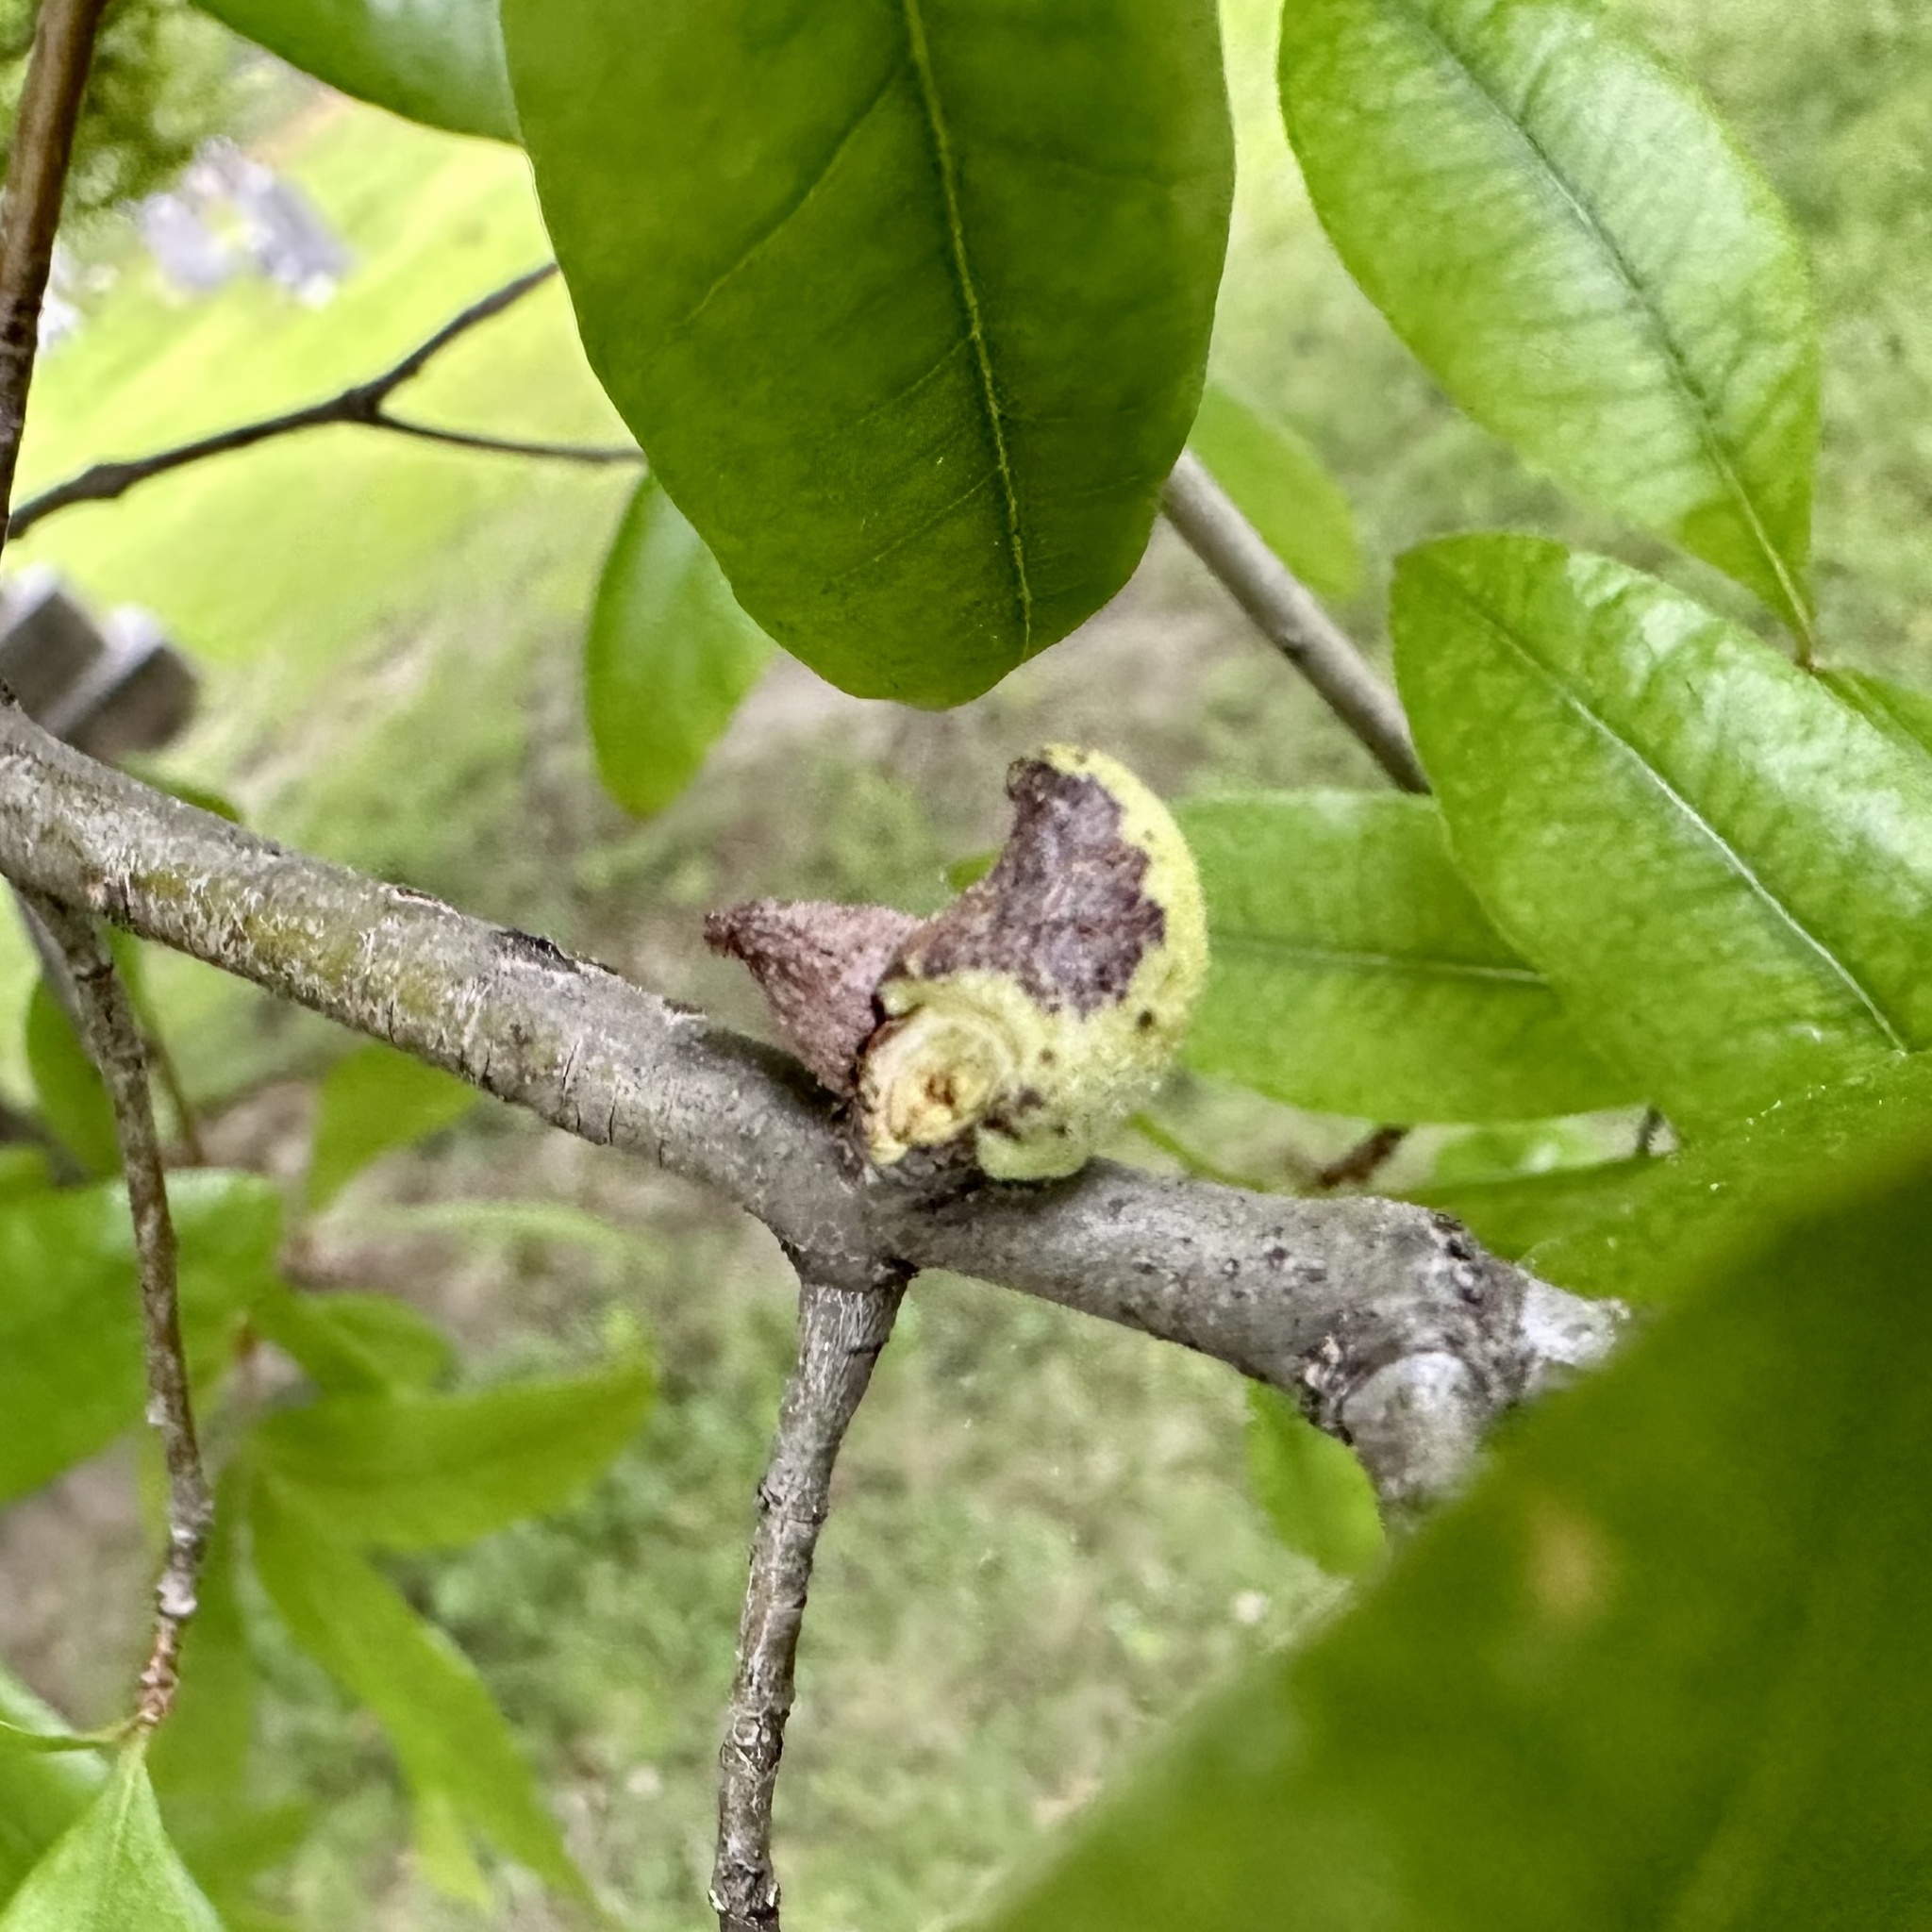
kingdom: Animalia
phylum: Arthropoda
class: Insecta
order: Hymenoptera
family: Cynipidae
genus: Callirhytis
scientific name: Callirhytis
